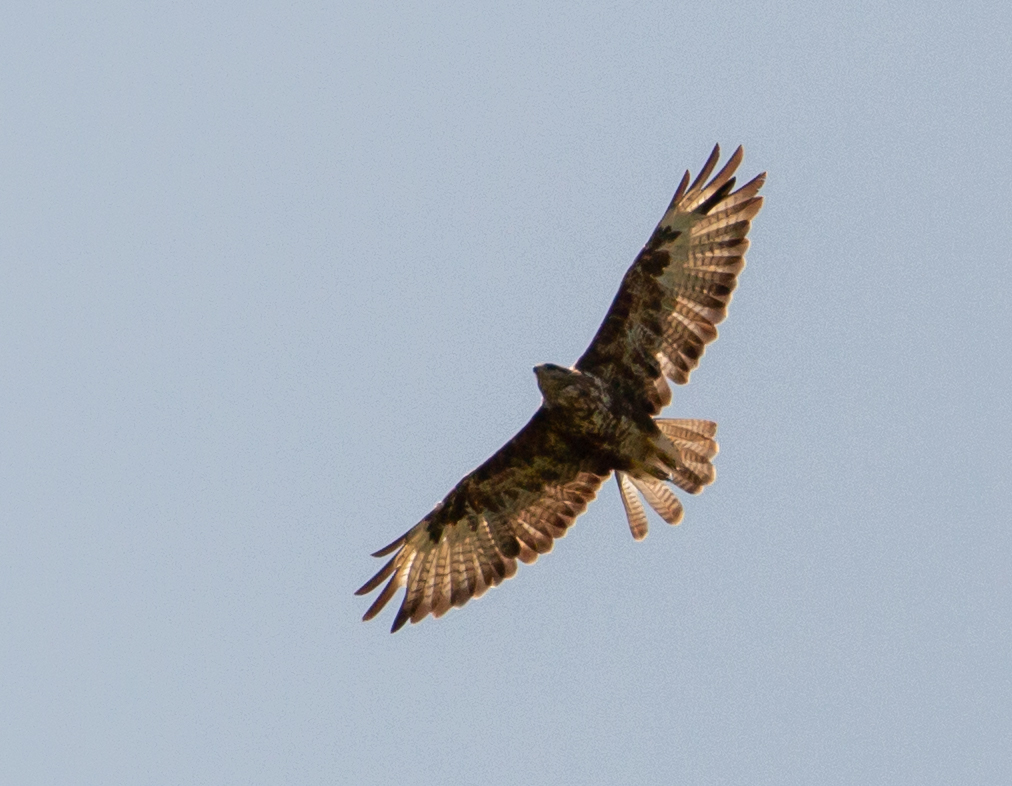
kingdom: Animalia
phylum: Chordata
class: Aves
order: Accipitriformes
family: Accipitridae
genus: Buteo
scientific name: Buteo buteo
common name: Common buzzard
